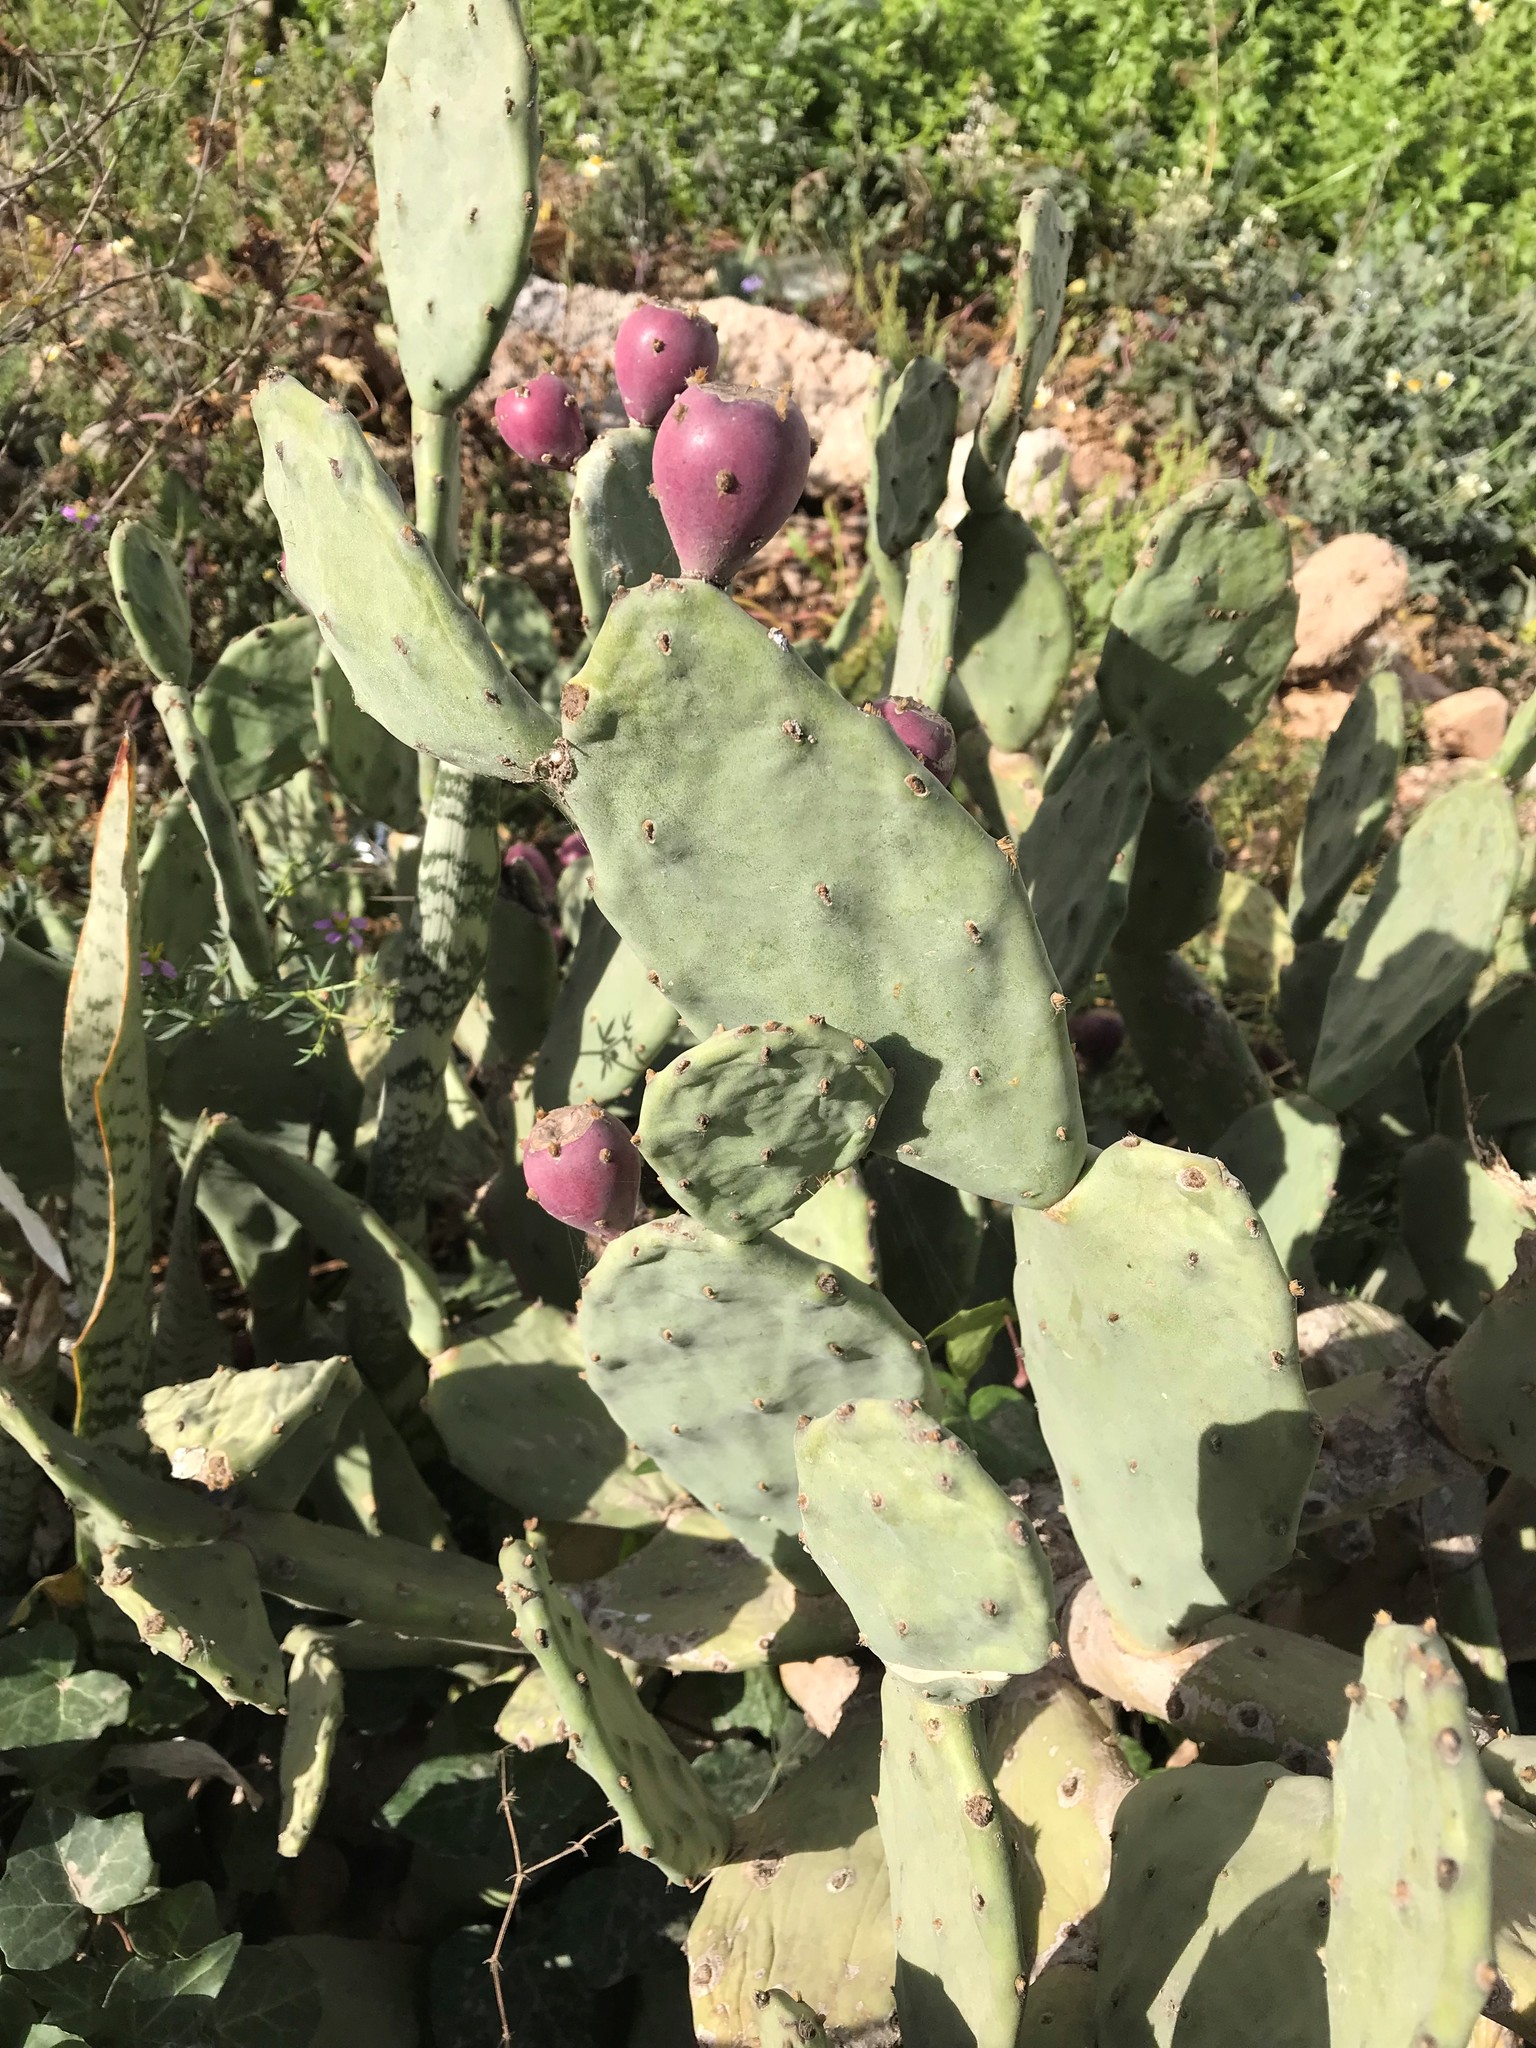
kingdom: Plantae
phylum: Tracheophyta
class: Magnoliopsida
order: Caryophyllales
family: Cactaceae
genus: Opuntia
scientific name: Opuntia stricta
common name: Erect pricklypear
